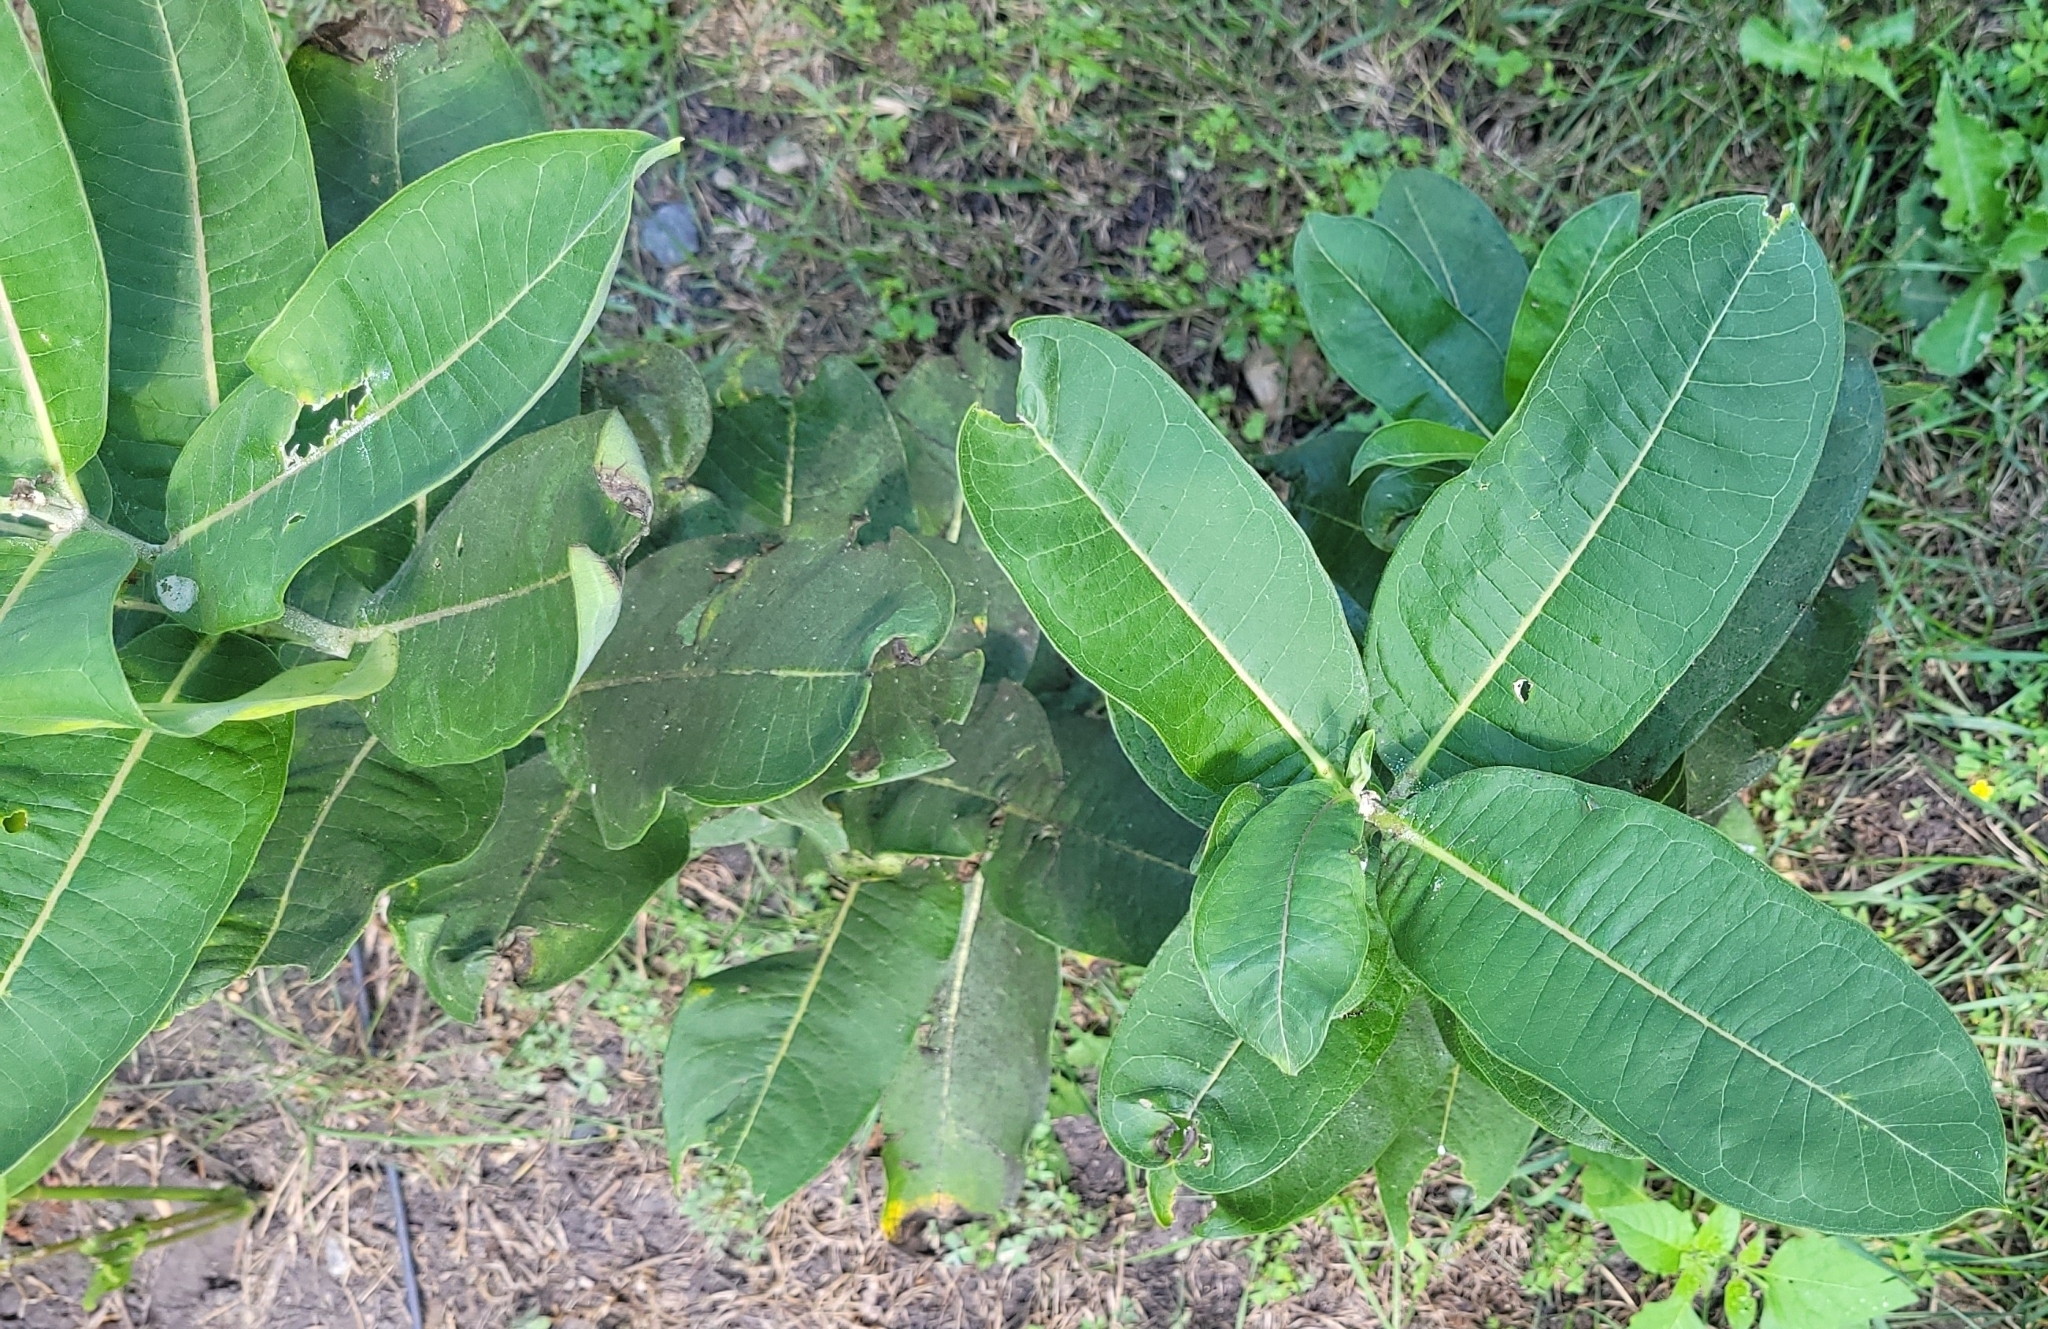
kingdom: Plantae
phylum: Tracheophyta
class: Magnoliopsida
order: Gentianales
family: Apocynaceae
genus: Asclepias
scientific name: Asclepias syriaca
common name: Common milkweed
